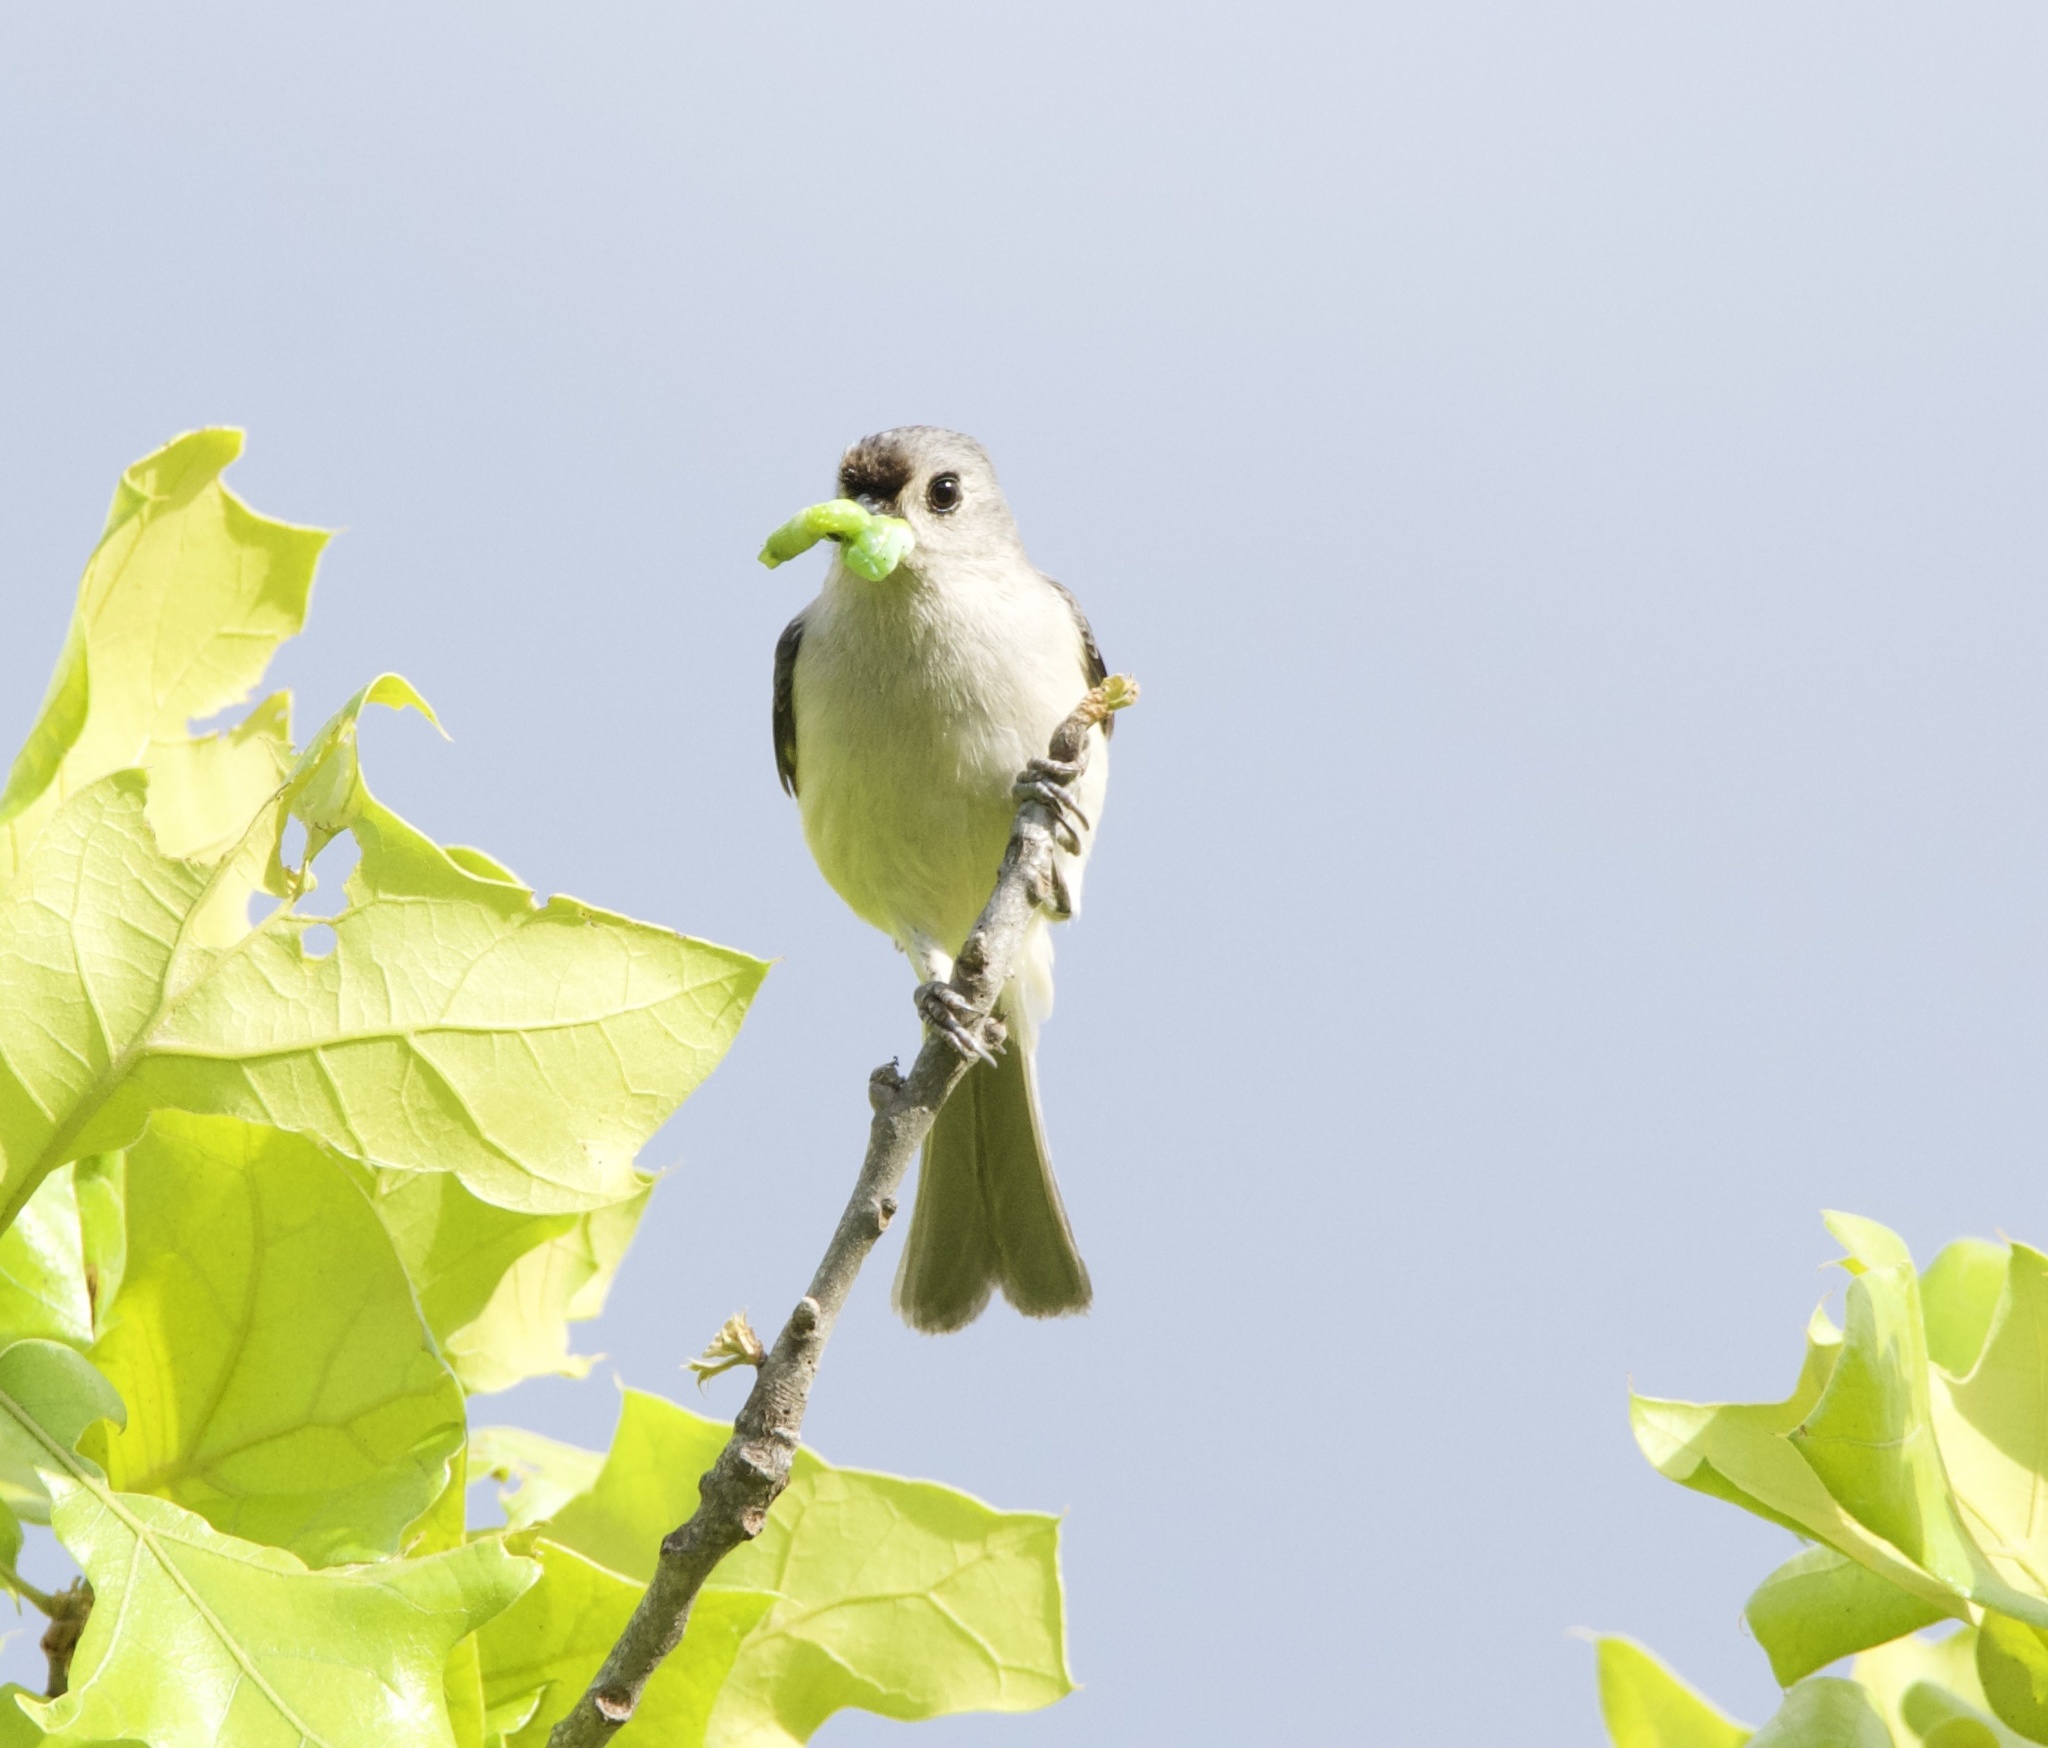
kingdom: Animalia
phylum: Chordata
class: Aves
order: Passeriformes
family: Paridae
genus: Baeolophus
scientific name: Baeolophus bicolor
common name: Tufted titmouse
